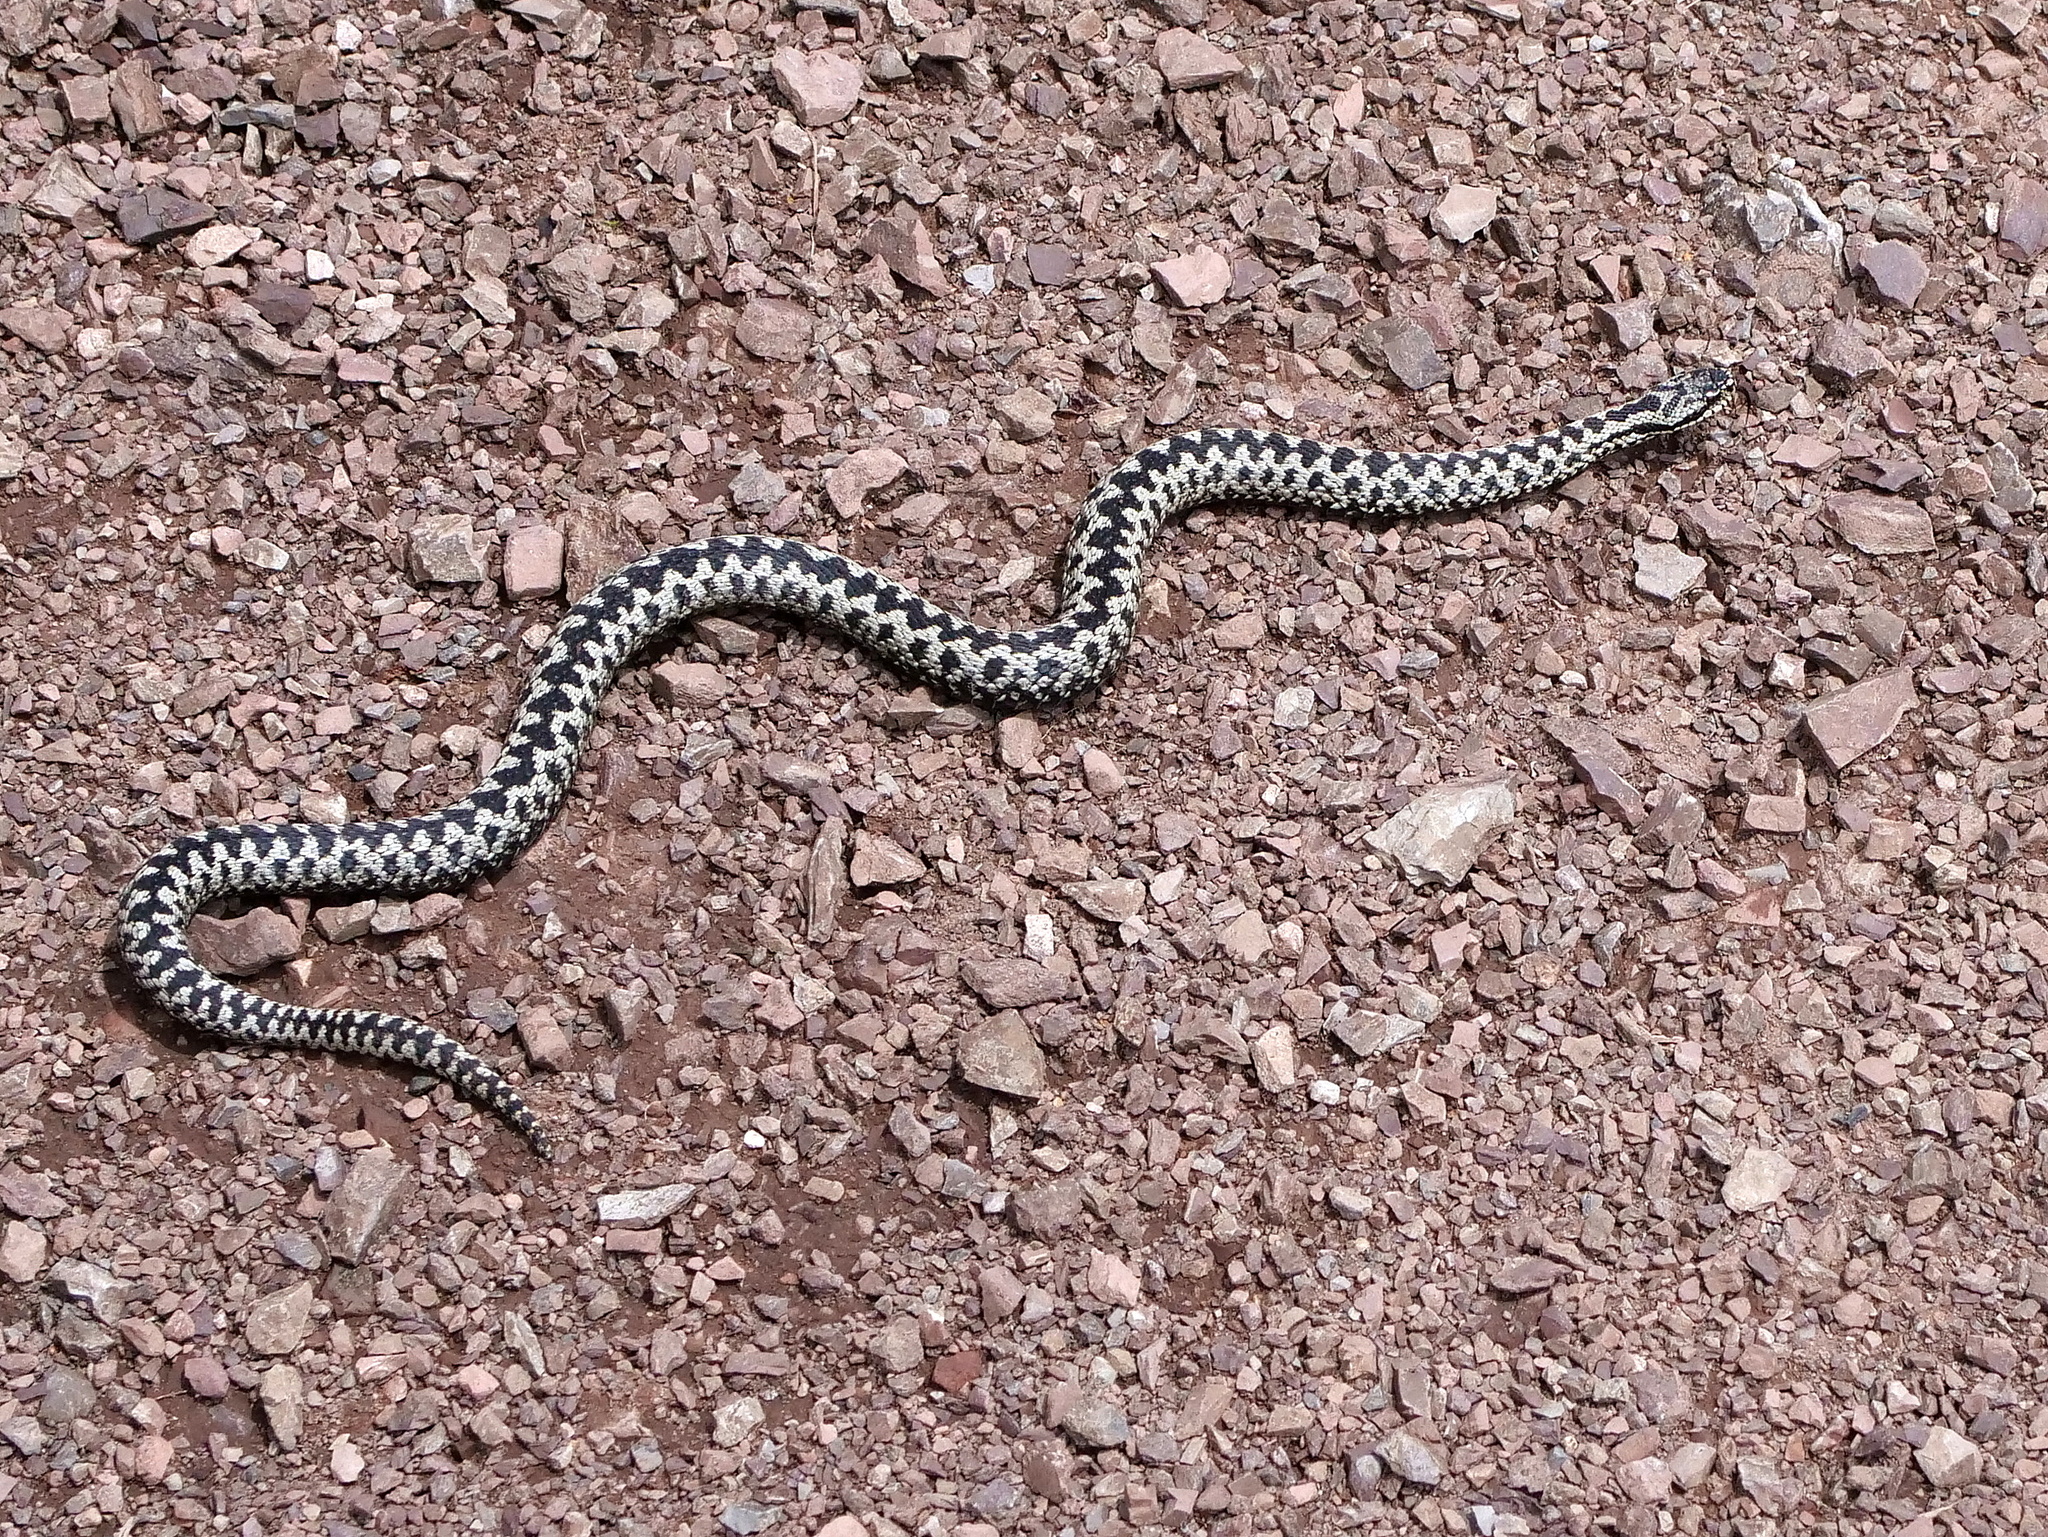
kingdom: Animalia
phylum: Chordata
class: Squamata
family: Viperidae
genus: Vipera
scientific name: Vipera berus
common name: Adder
